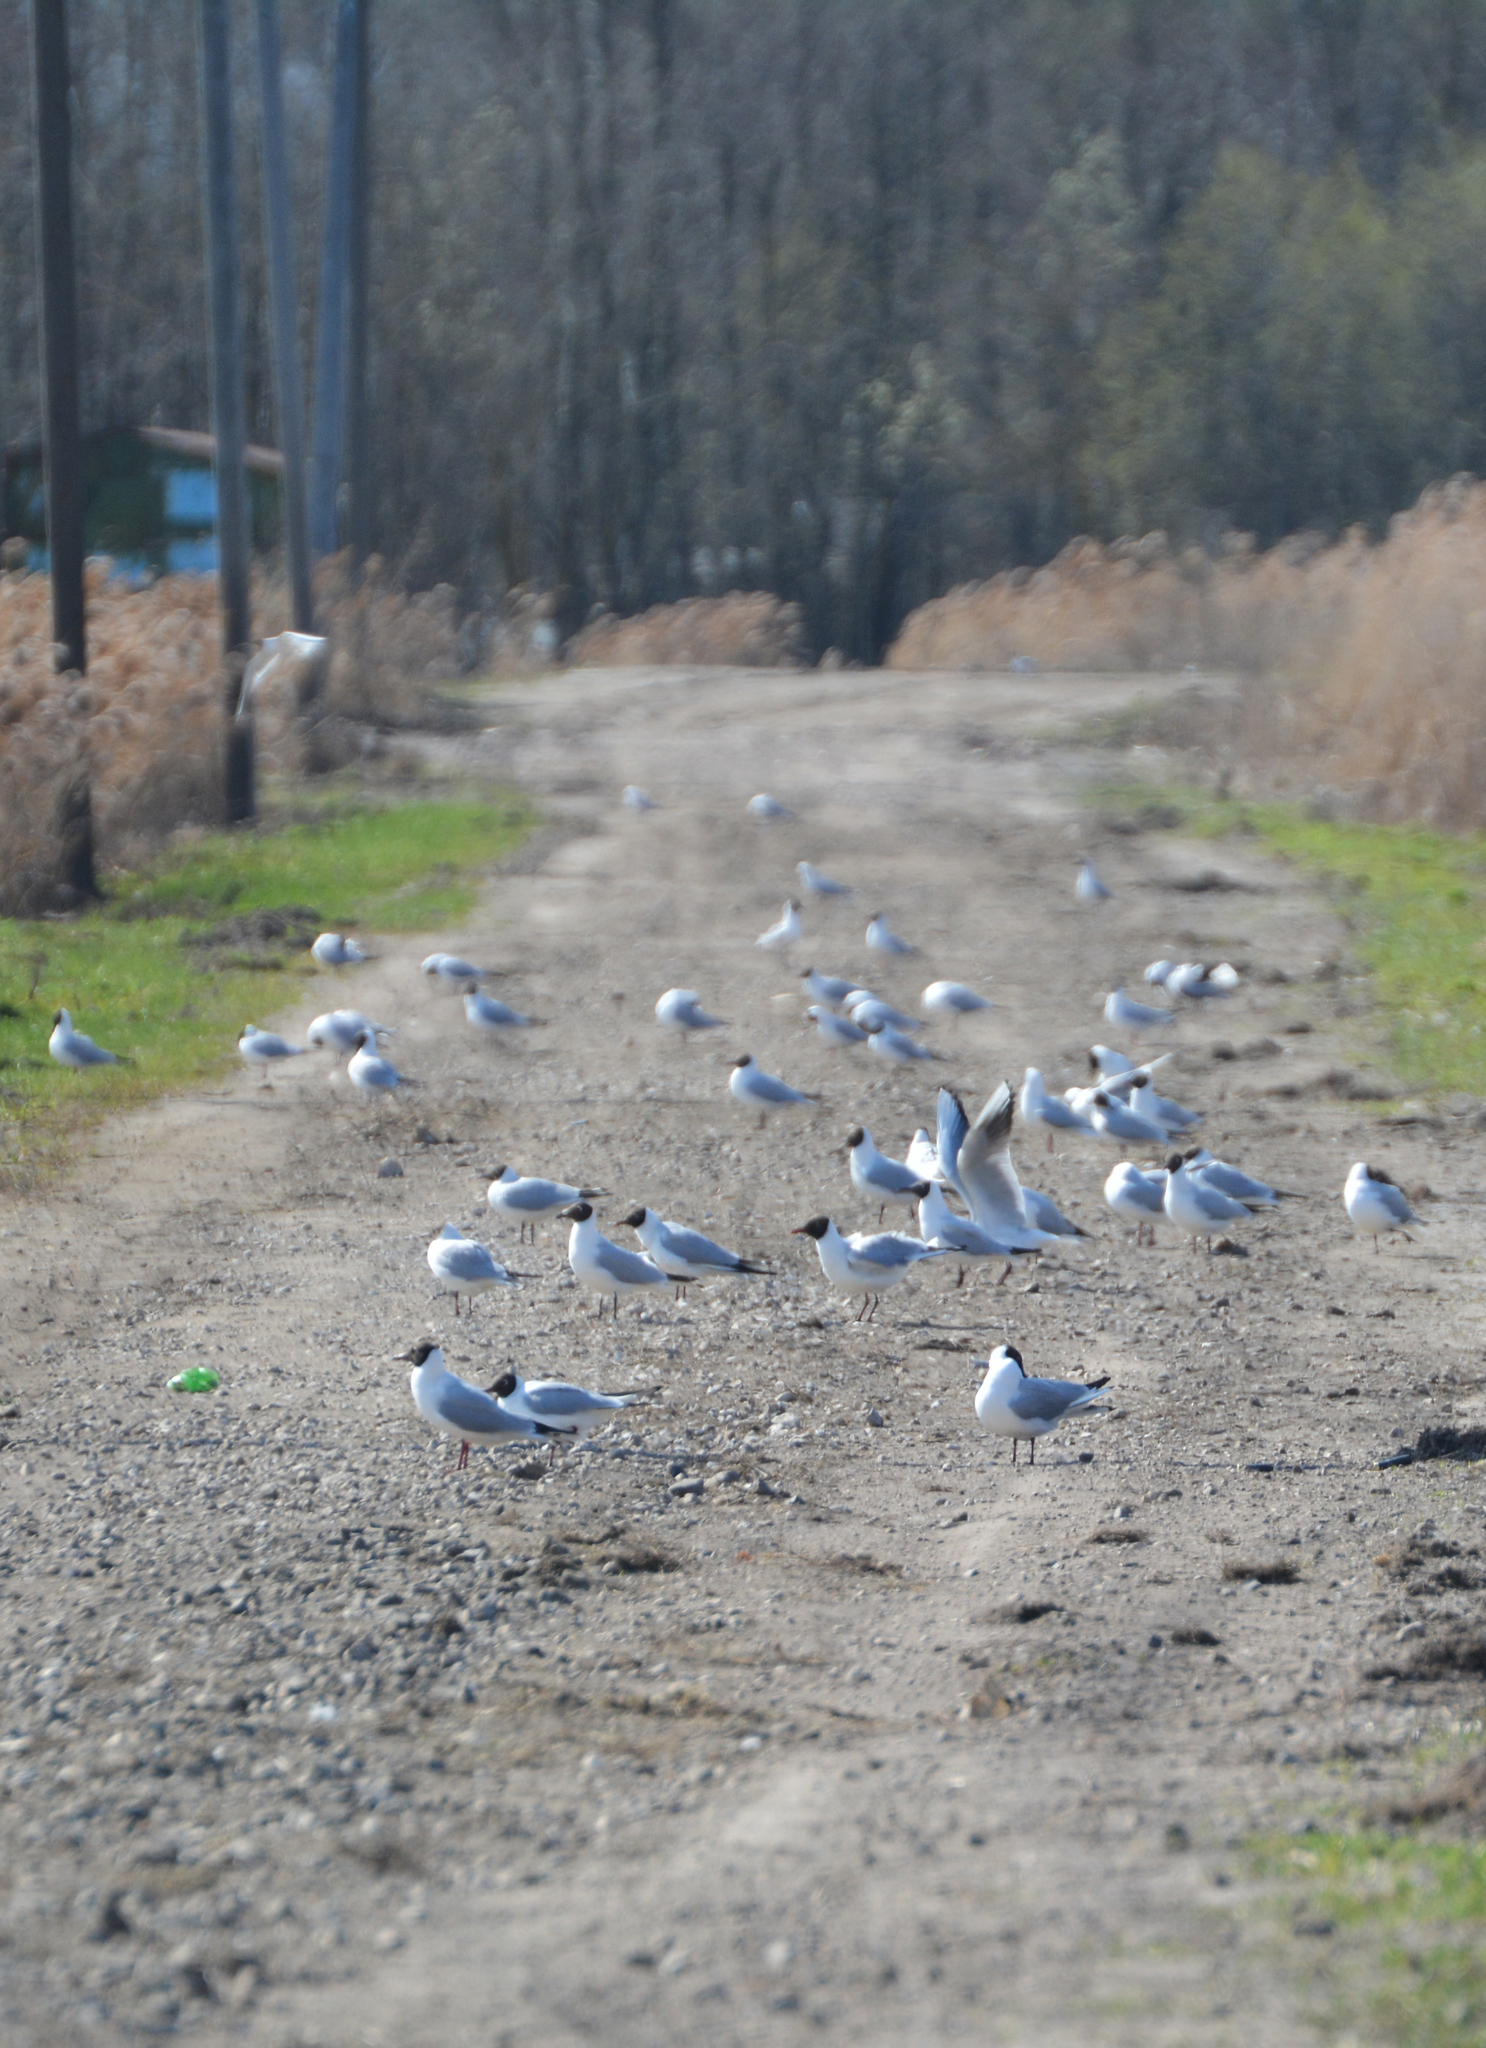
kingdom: Animalia
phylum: Chordata
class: Aves
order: Charadriiformes
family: Laridae
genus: Chroicocephalus
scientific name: Chroicocephalus ridibundus
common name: Black-headed gull
